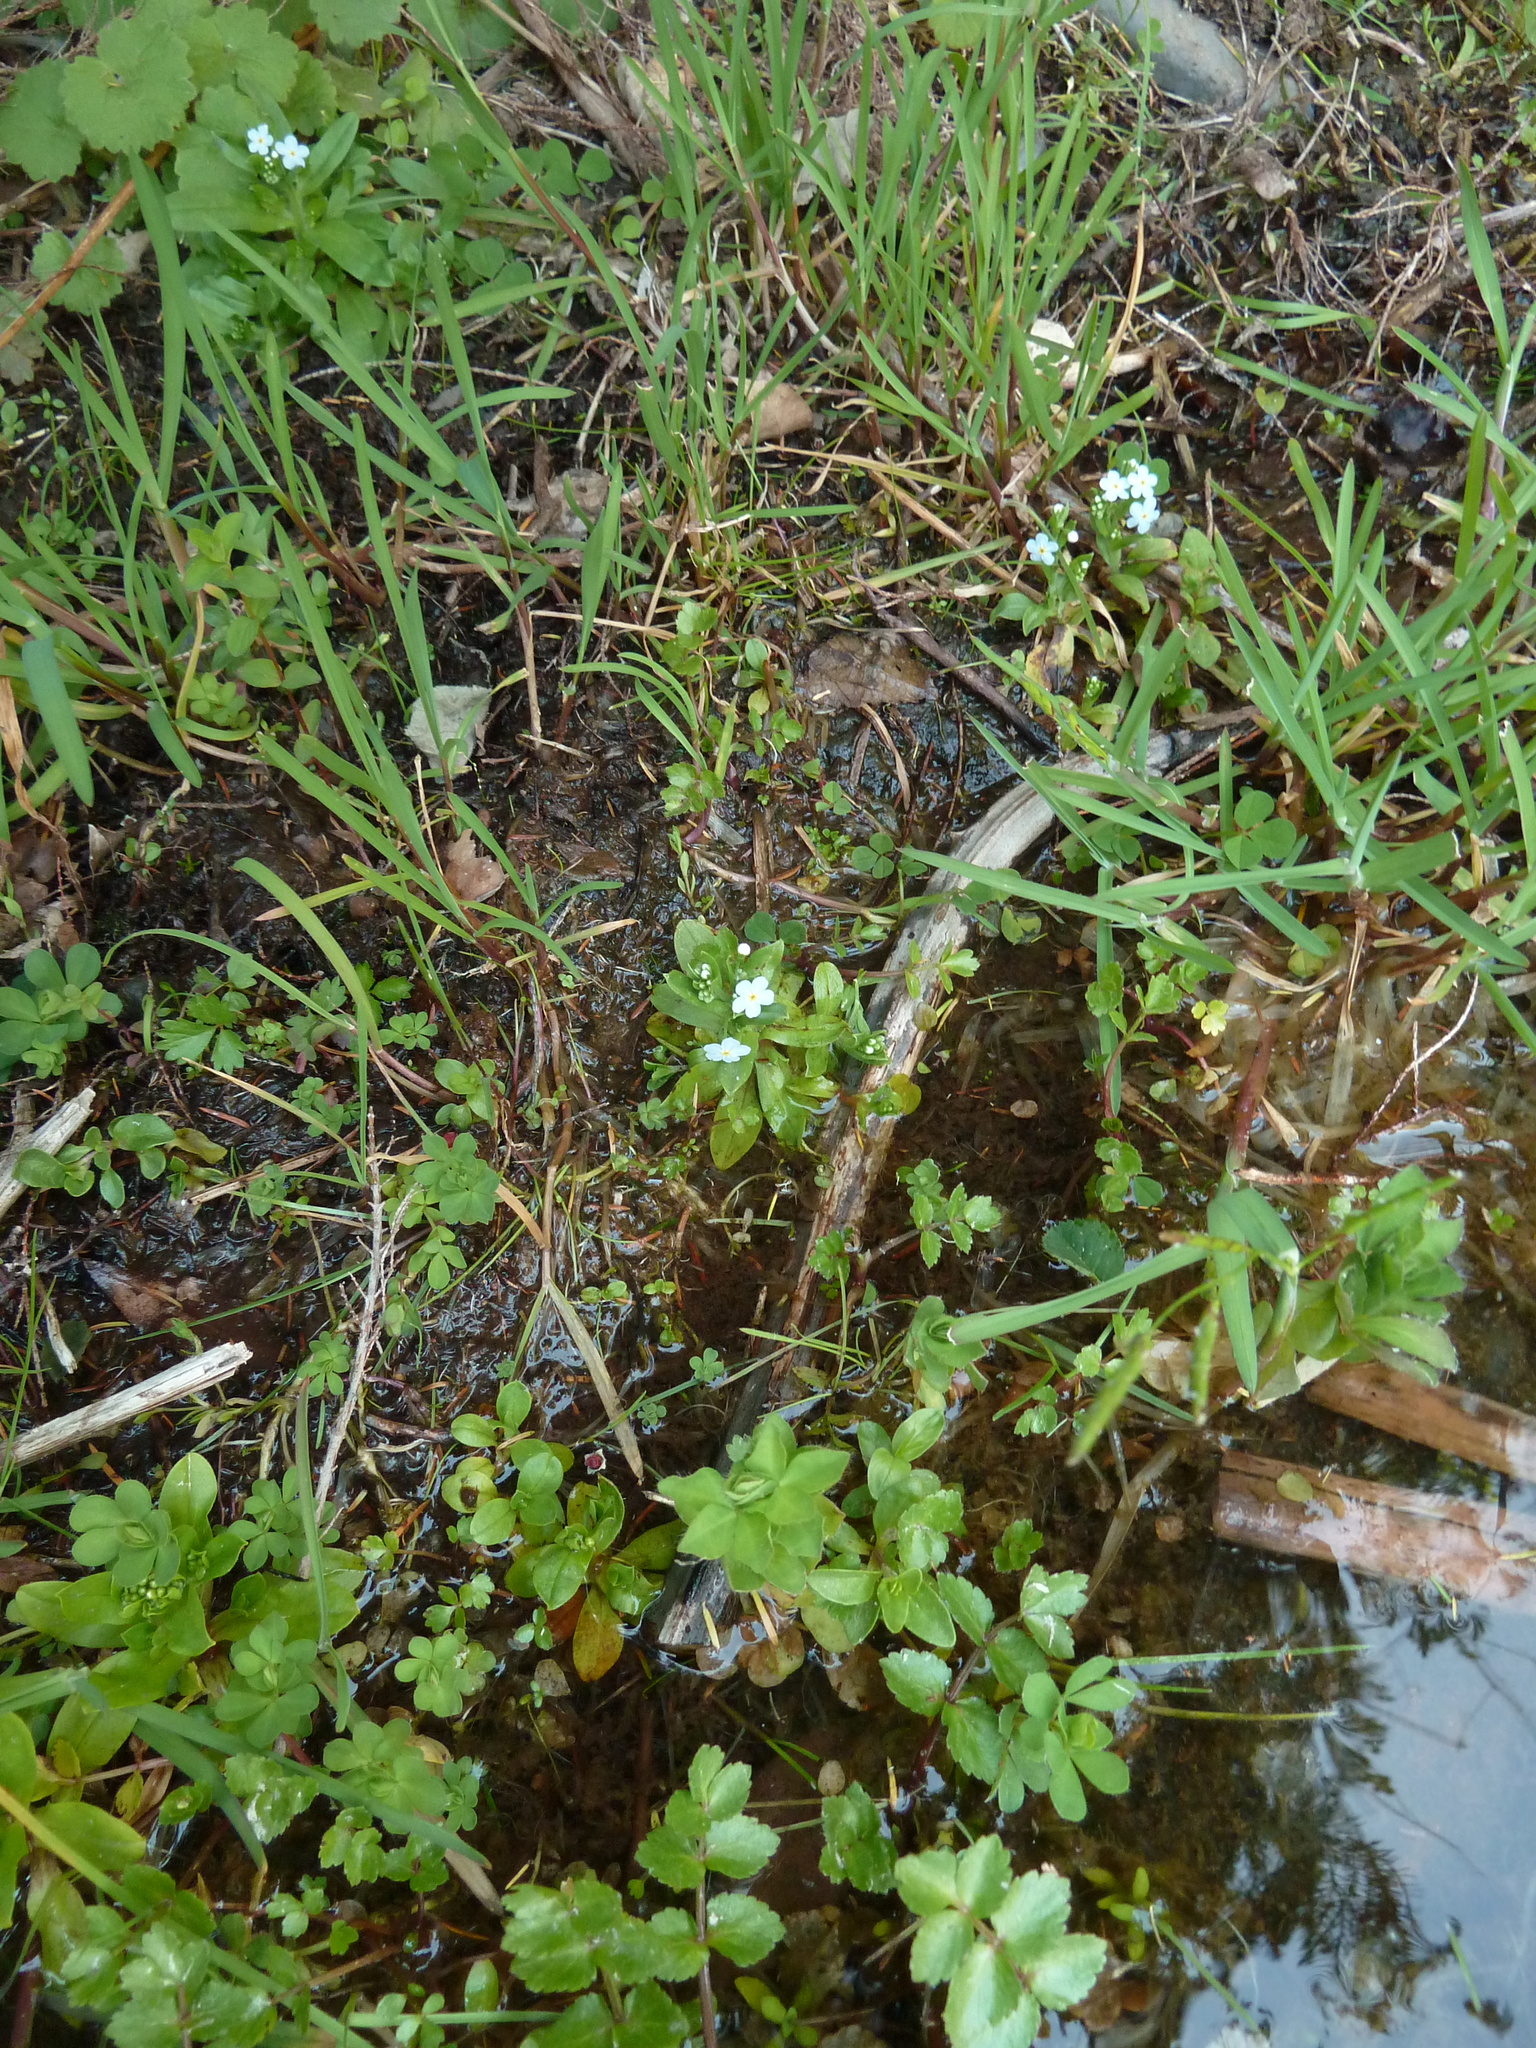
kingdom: Plantae
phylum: Tracheophyta
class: Magnoliopsida
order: Boraginales
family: Boraginaceae
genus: Myosotis
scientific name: Myosotis stolonifera
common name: Pale forget-me-not
